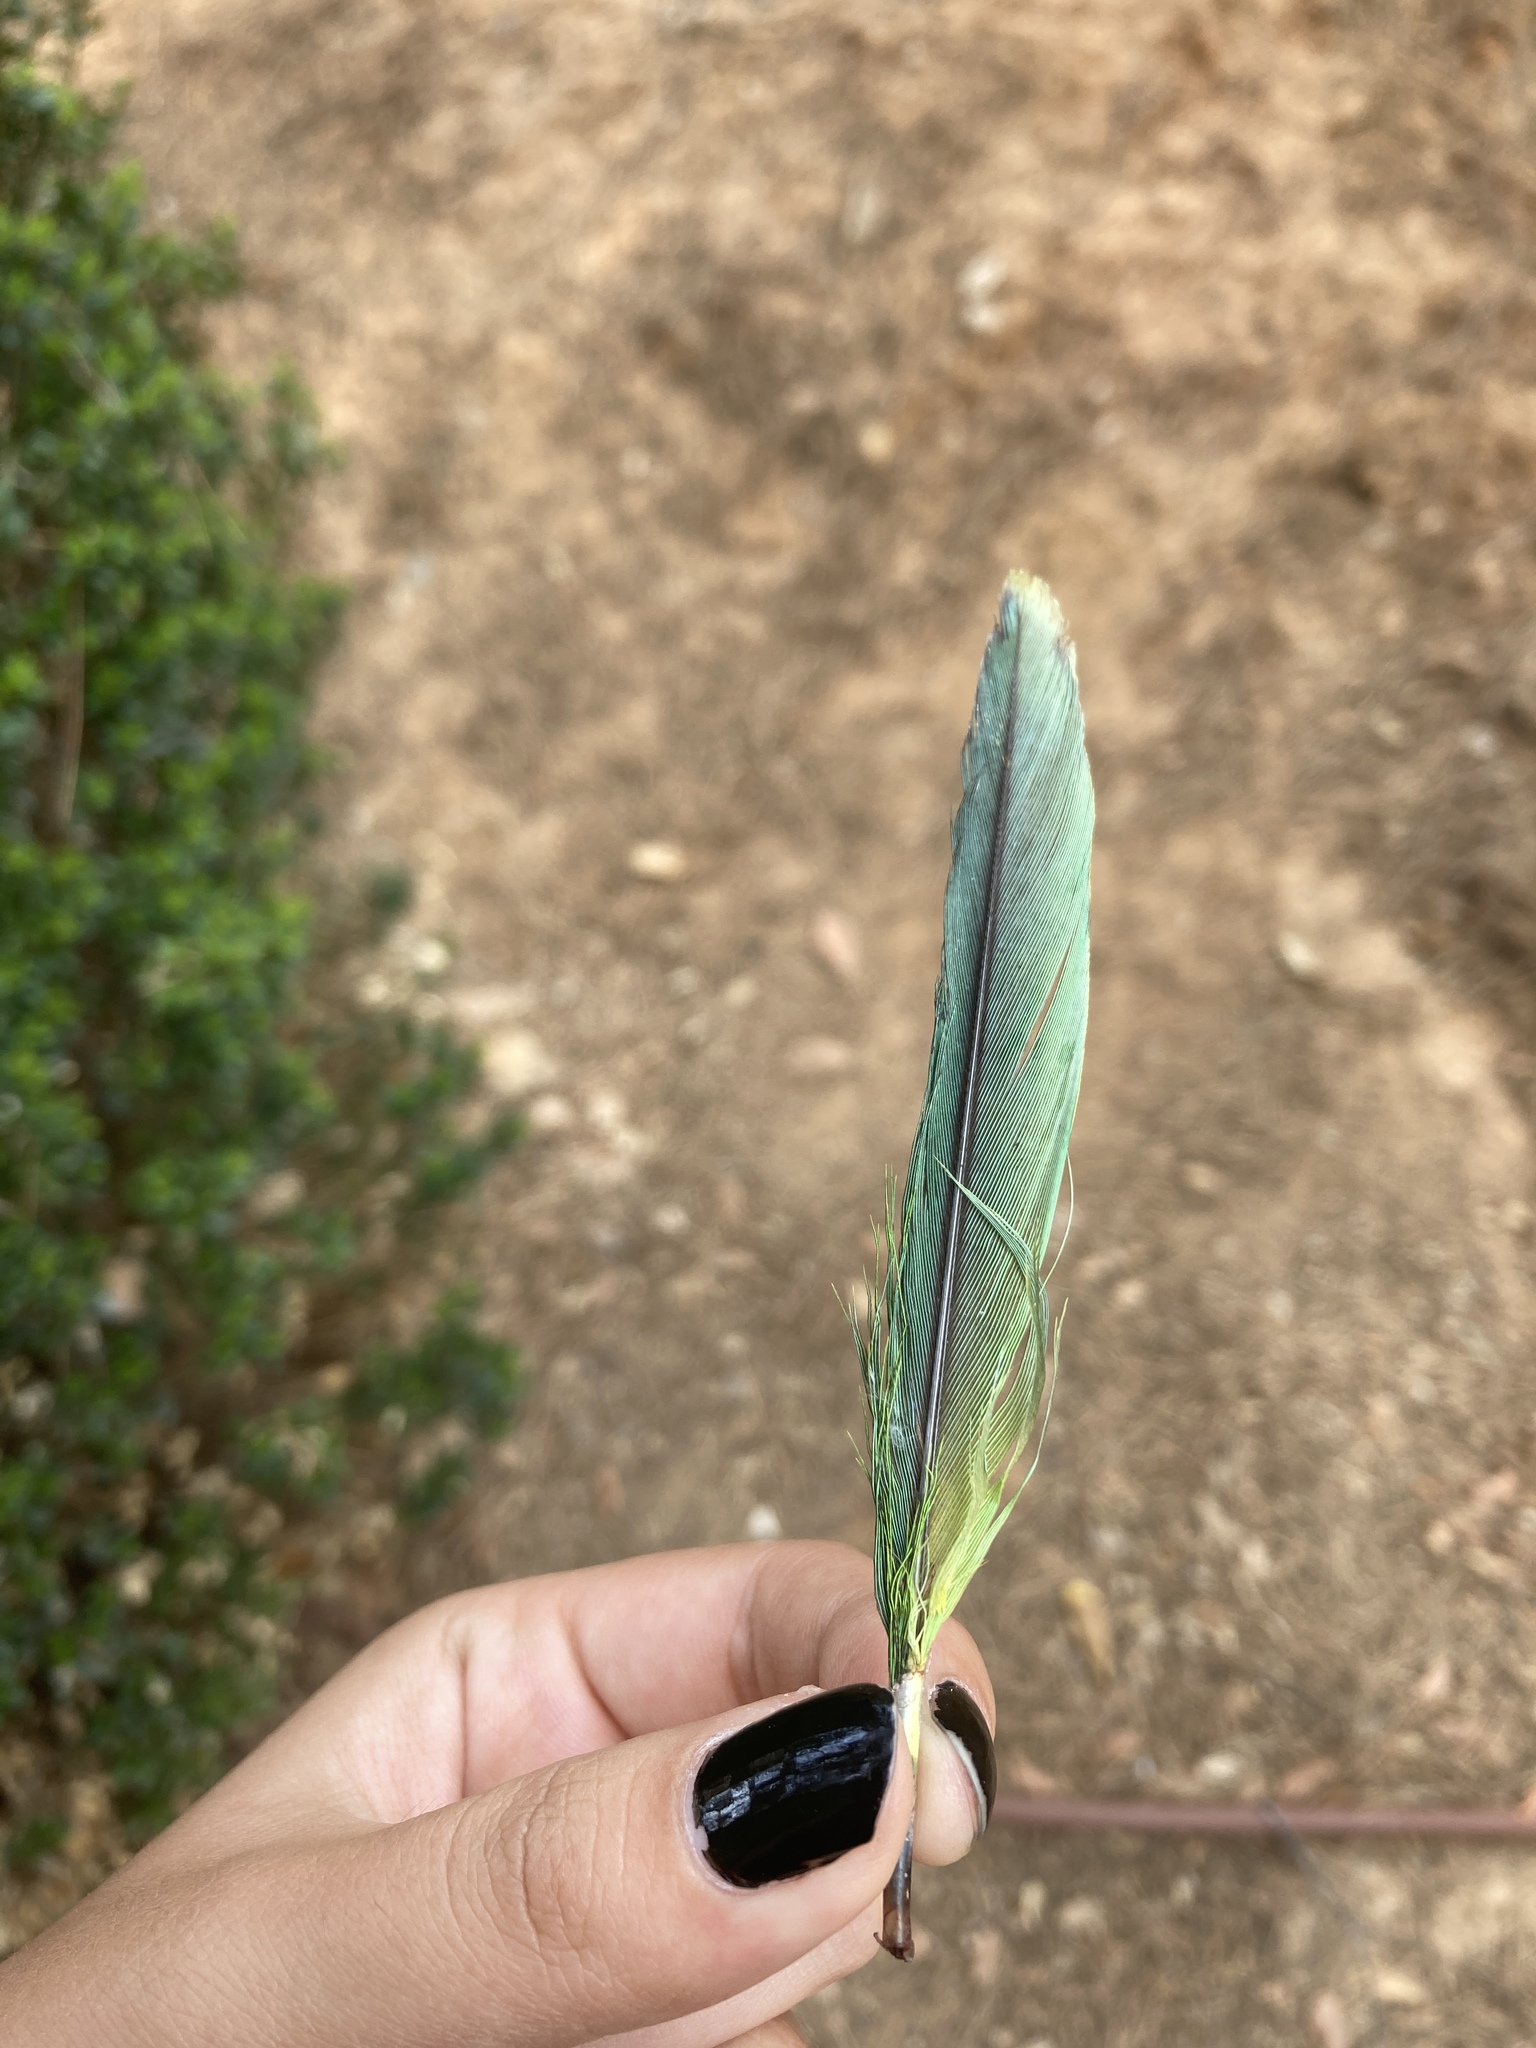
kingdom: Animalia
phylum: Chordata
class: Aves
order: Psittaciformes
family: Psittacidae
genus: Myiopsitta
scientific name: Myiopsitta monachus
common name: Monk parakeet
